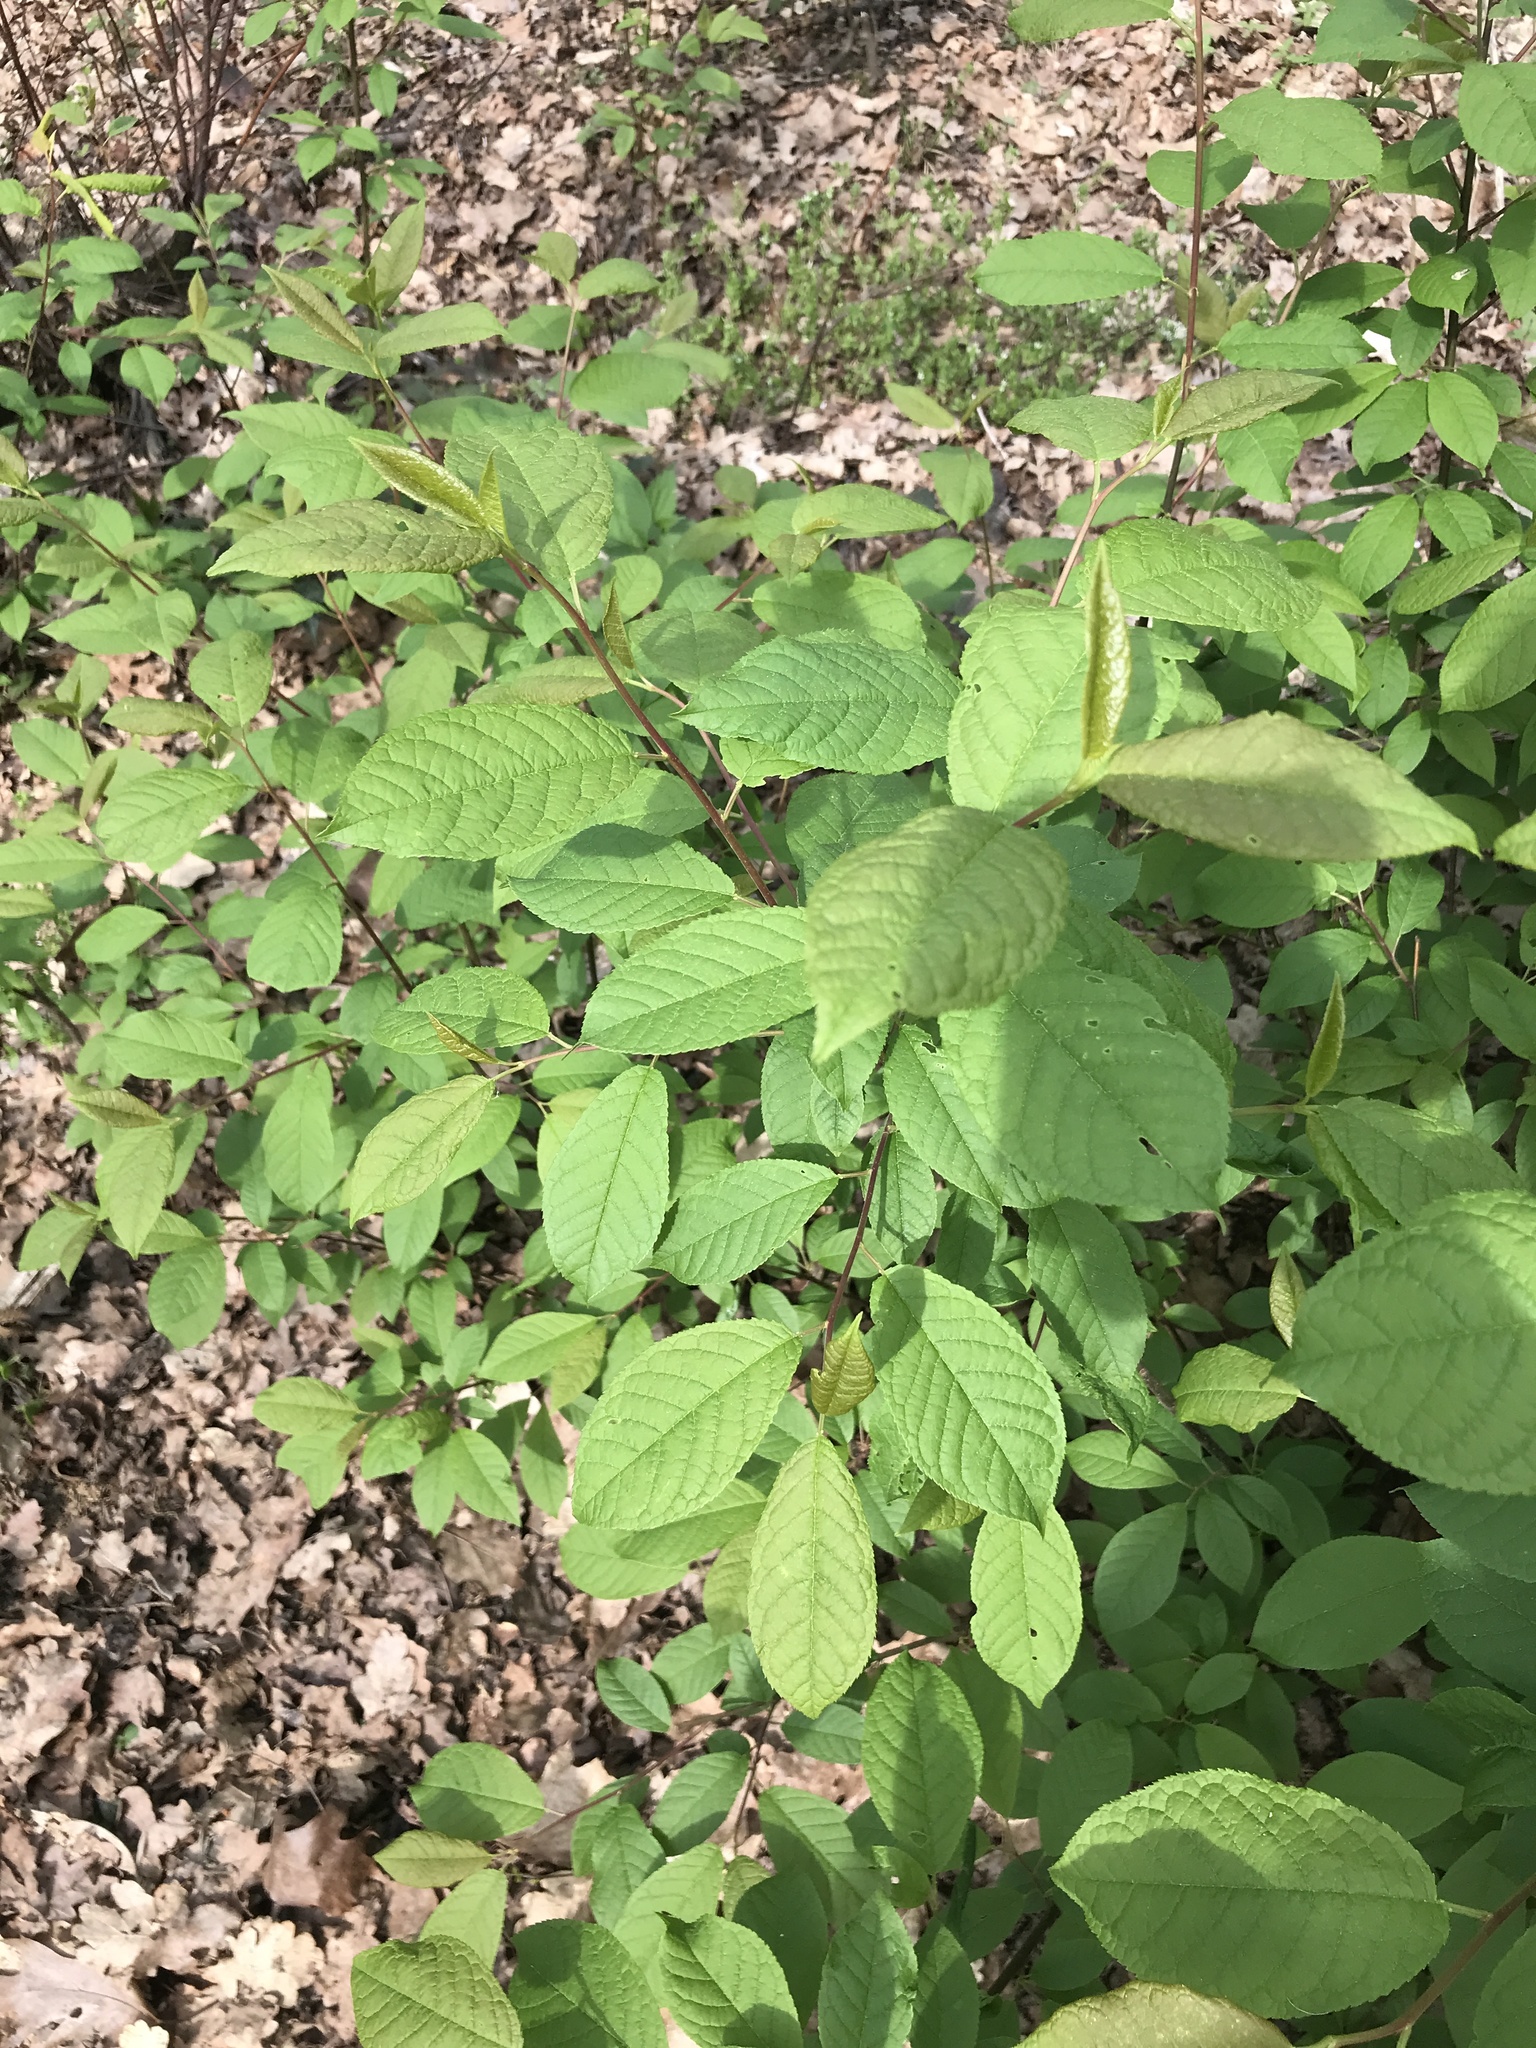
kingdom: Plantae
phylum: Tracheophyta
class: Magnoliopsida
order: Rosales
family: Rosaceae
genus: Prunus
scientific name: Prunus padus
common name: Bird cherry
